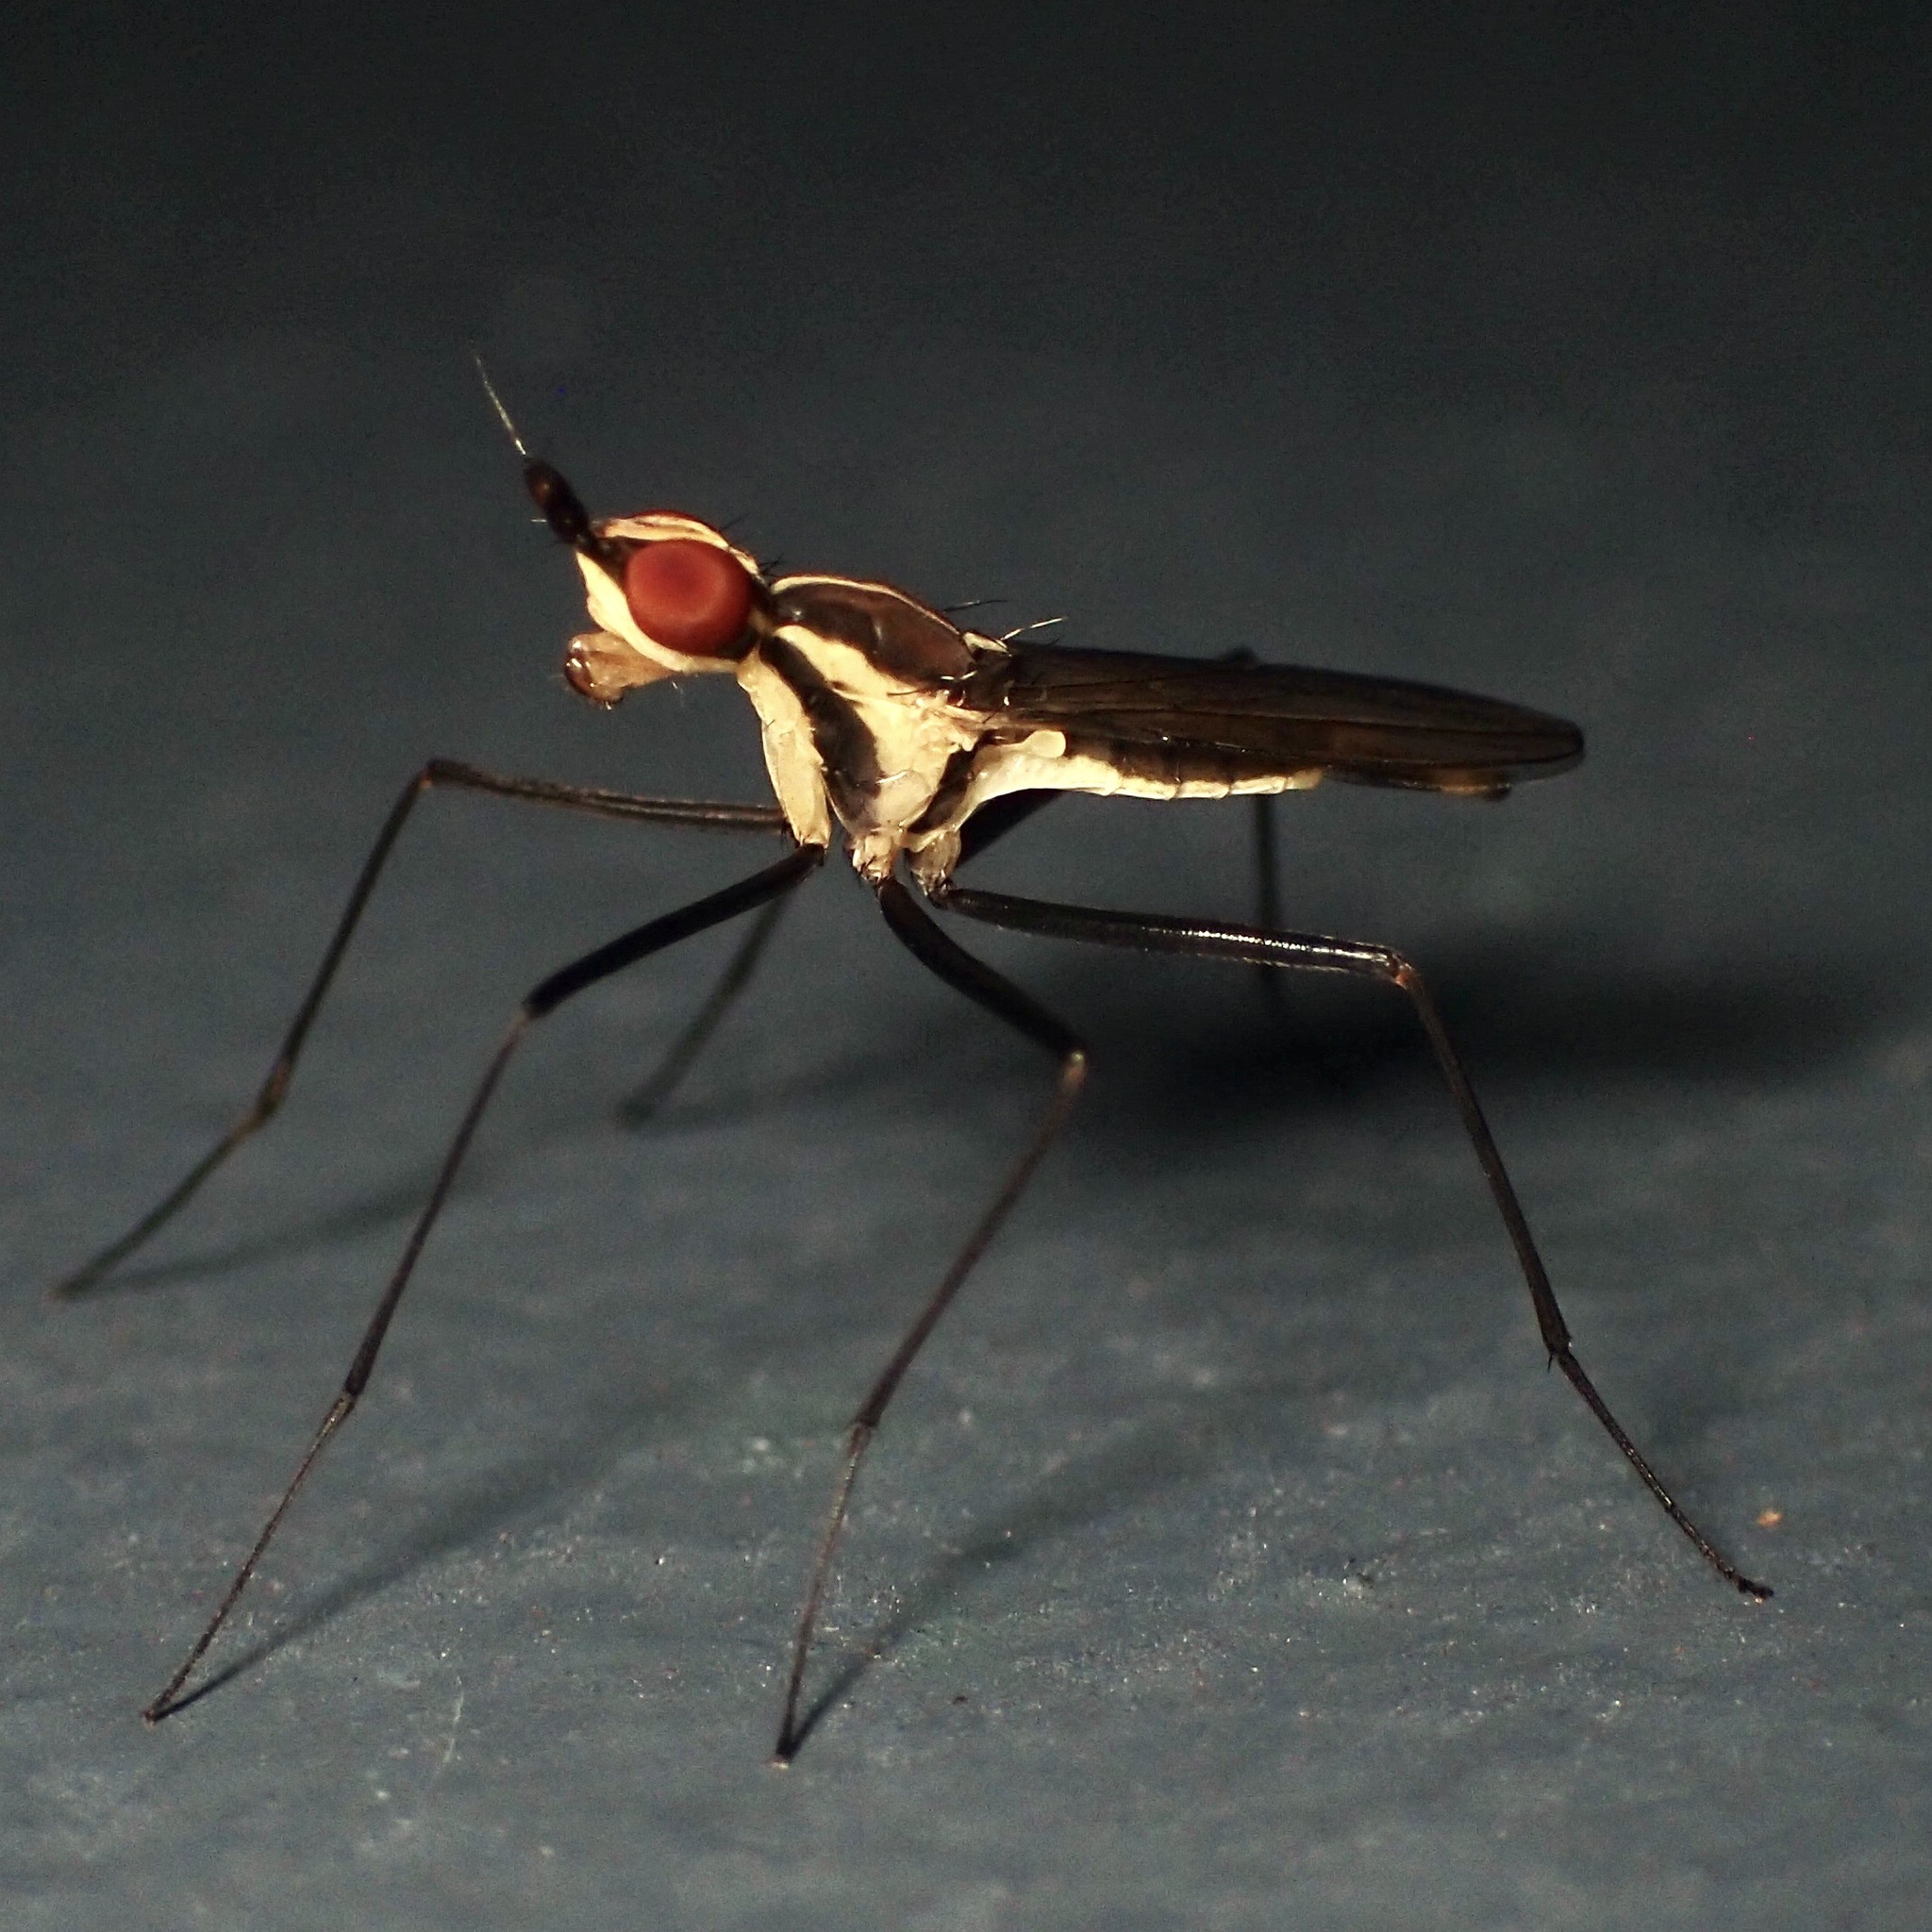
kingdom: Animalia
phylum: Arthropoda
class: Insecta
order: Diptera
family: Neriidae
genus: Telostylinus
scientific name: Telostylinus lineolatus
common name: Banana stalk fly
